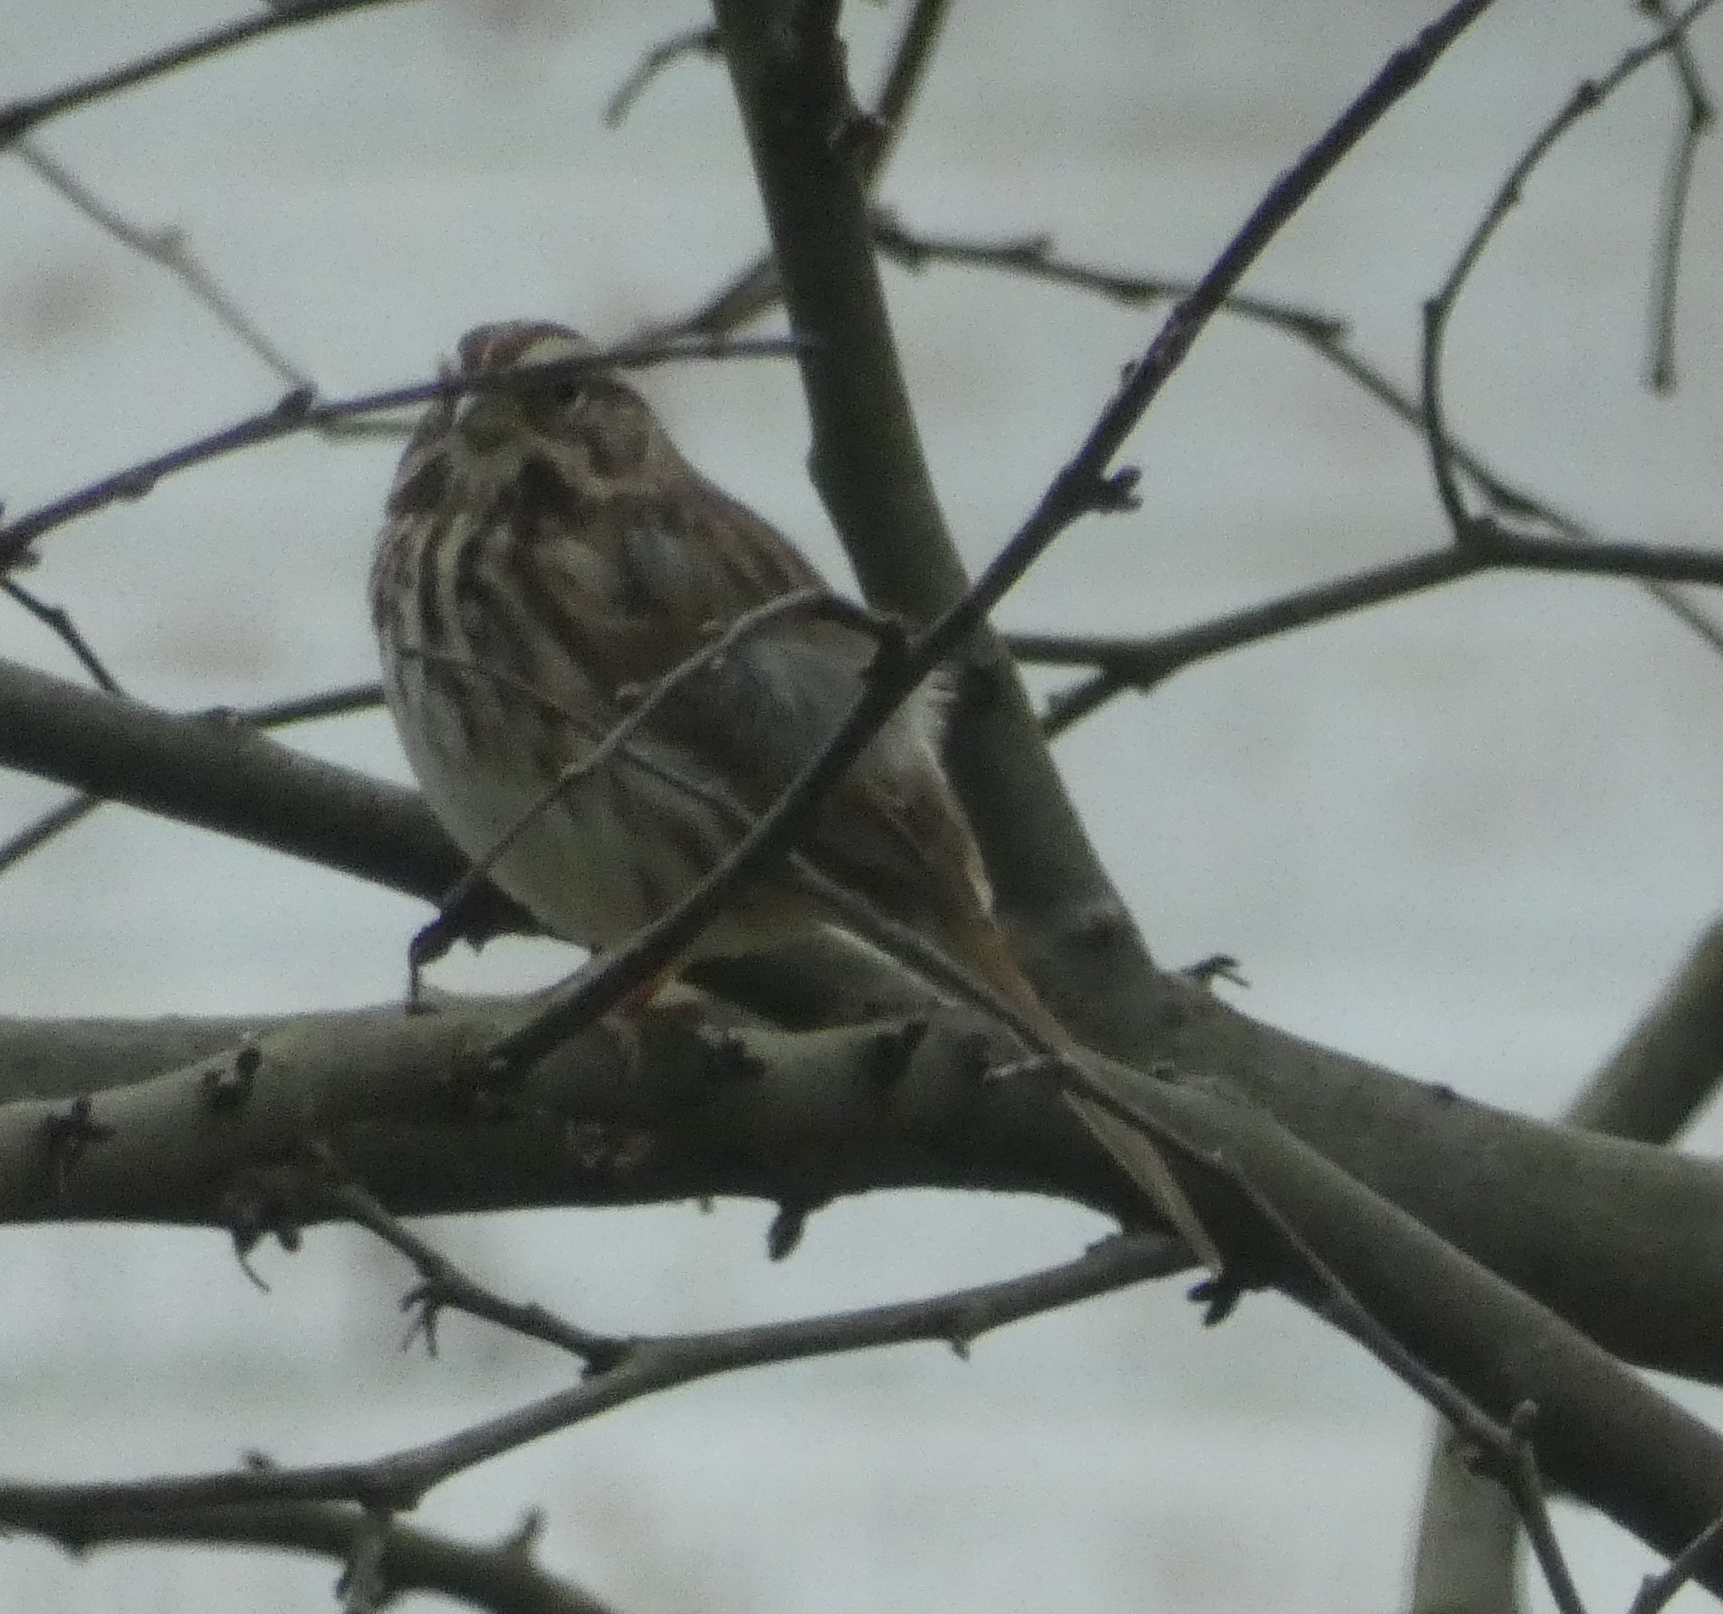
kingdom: Animalia
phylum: Chordata
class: Aves
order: Passeriformes
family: Passerellidae
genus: Melospiza
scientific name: Melospiza melodia
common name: Song sparrow
